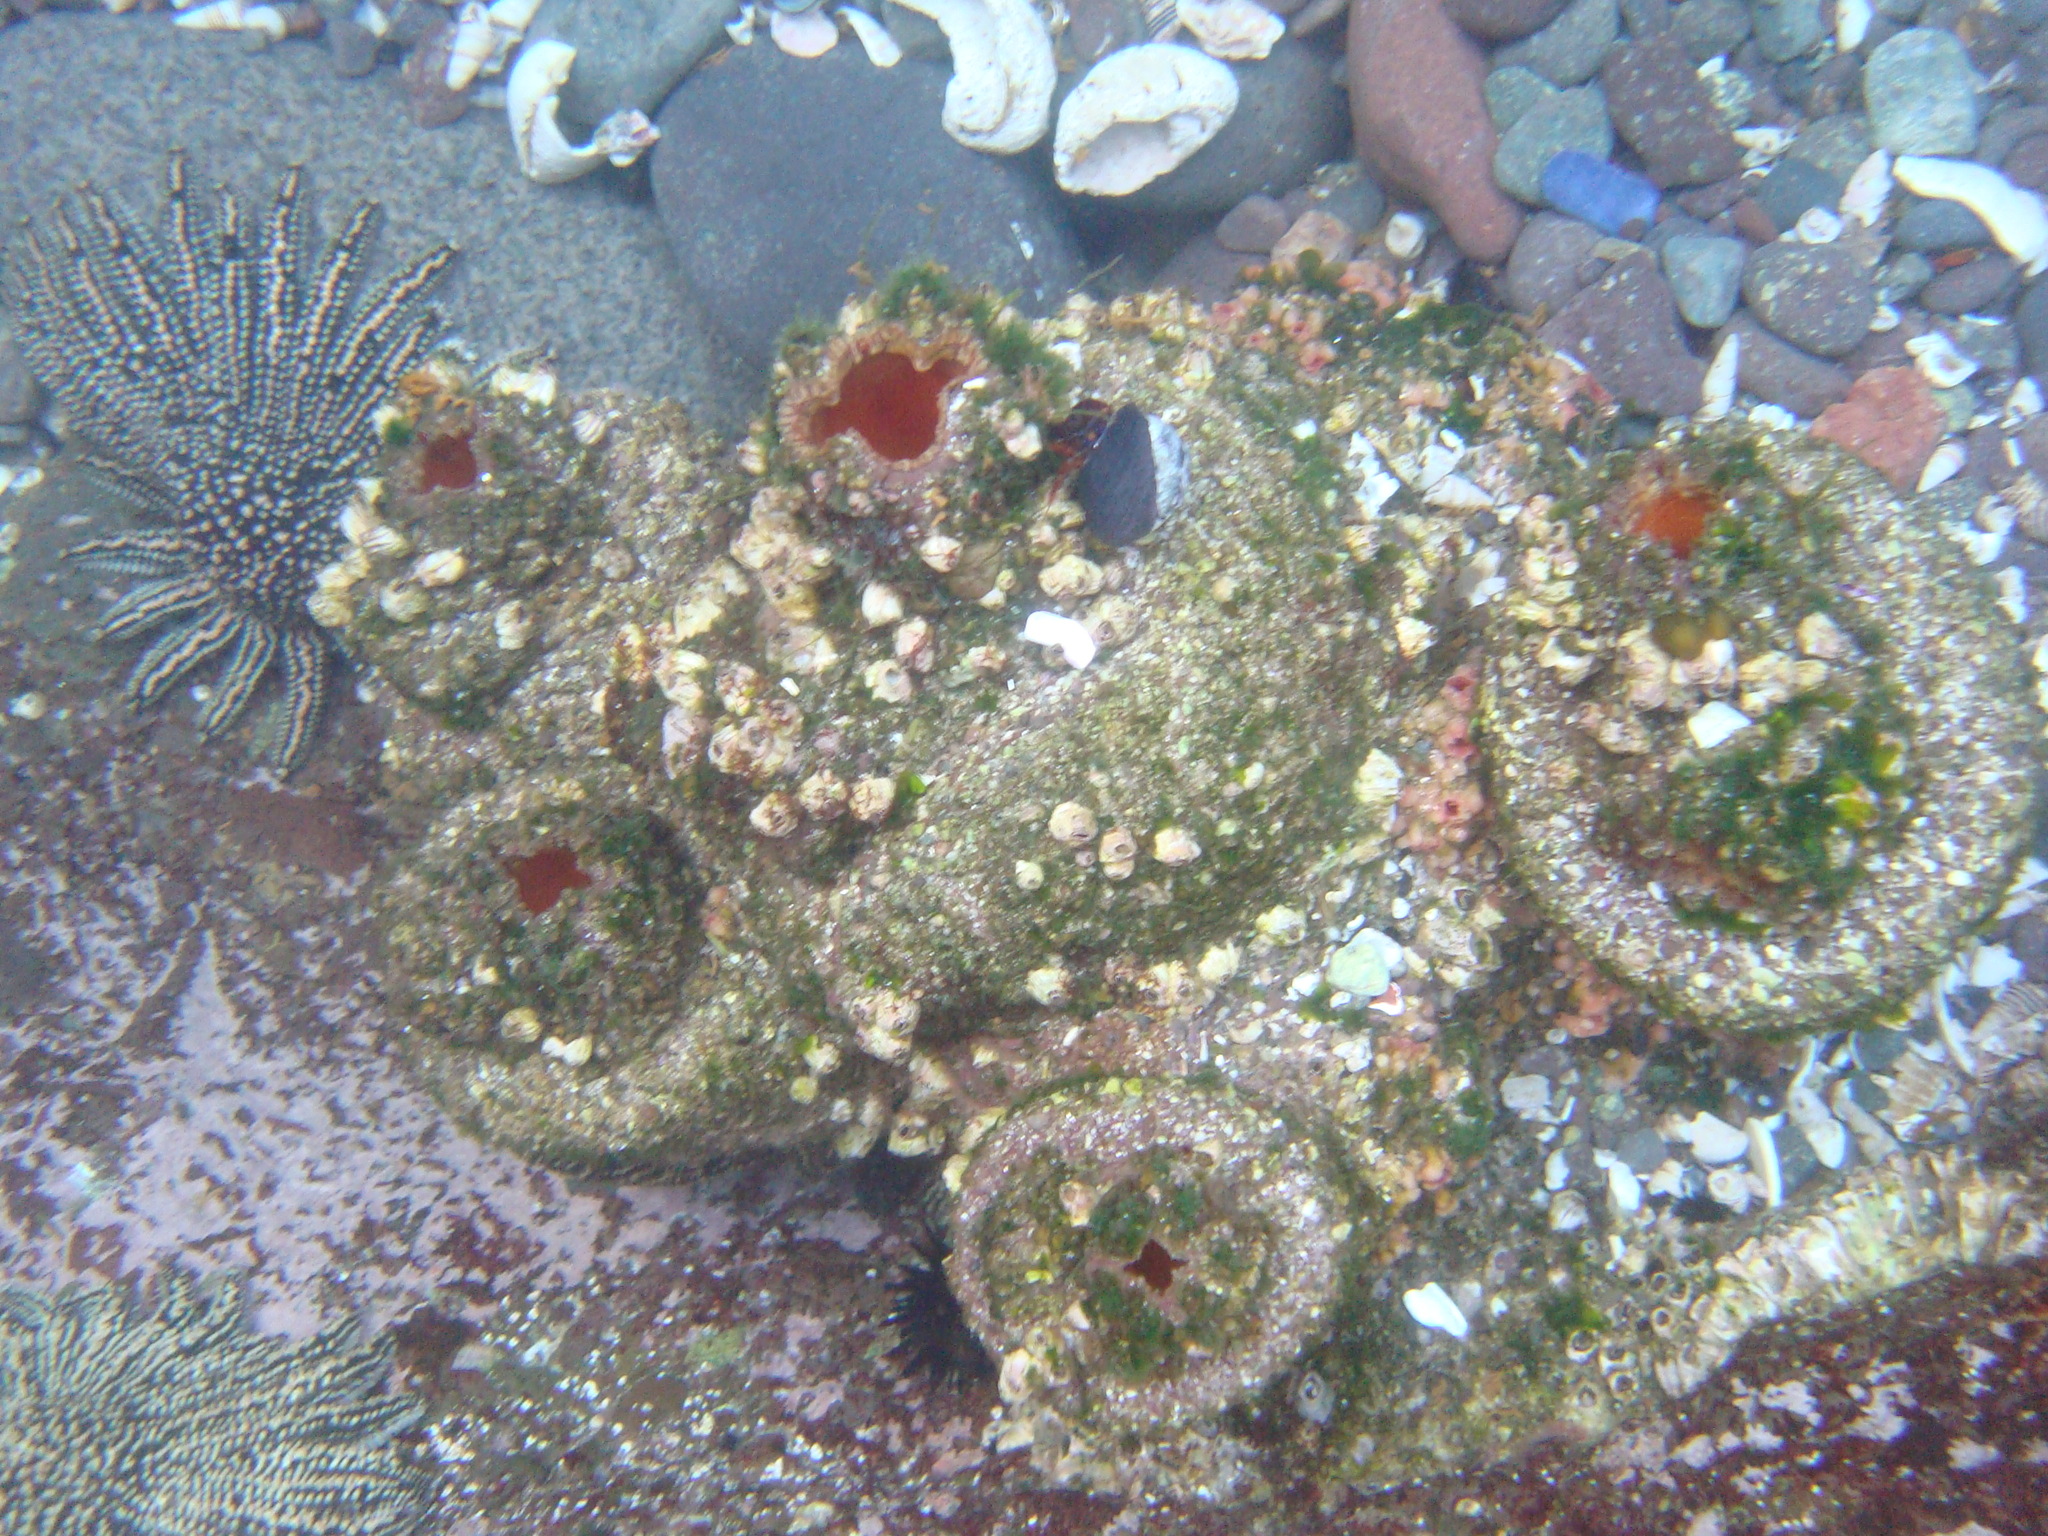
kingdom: Animalia
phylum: Chordata
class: Ascidiacea
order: Stolidobranchia
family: Pyuridae
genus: Pyura
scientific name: Pyura praeputialis
